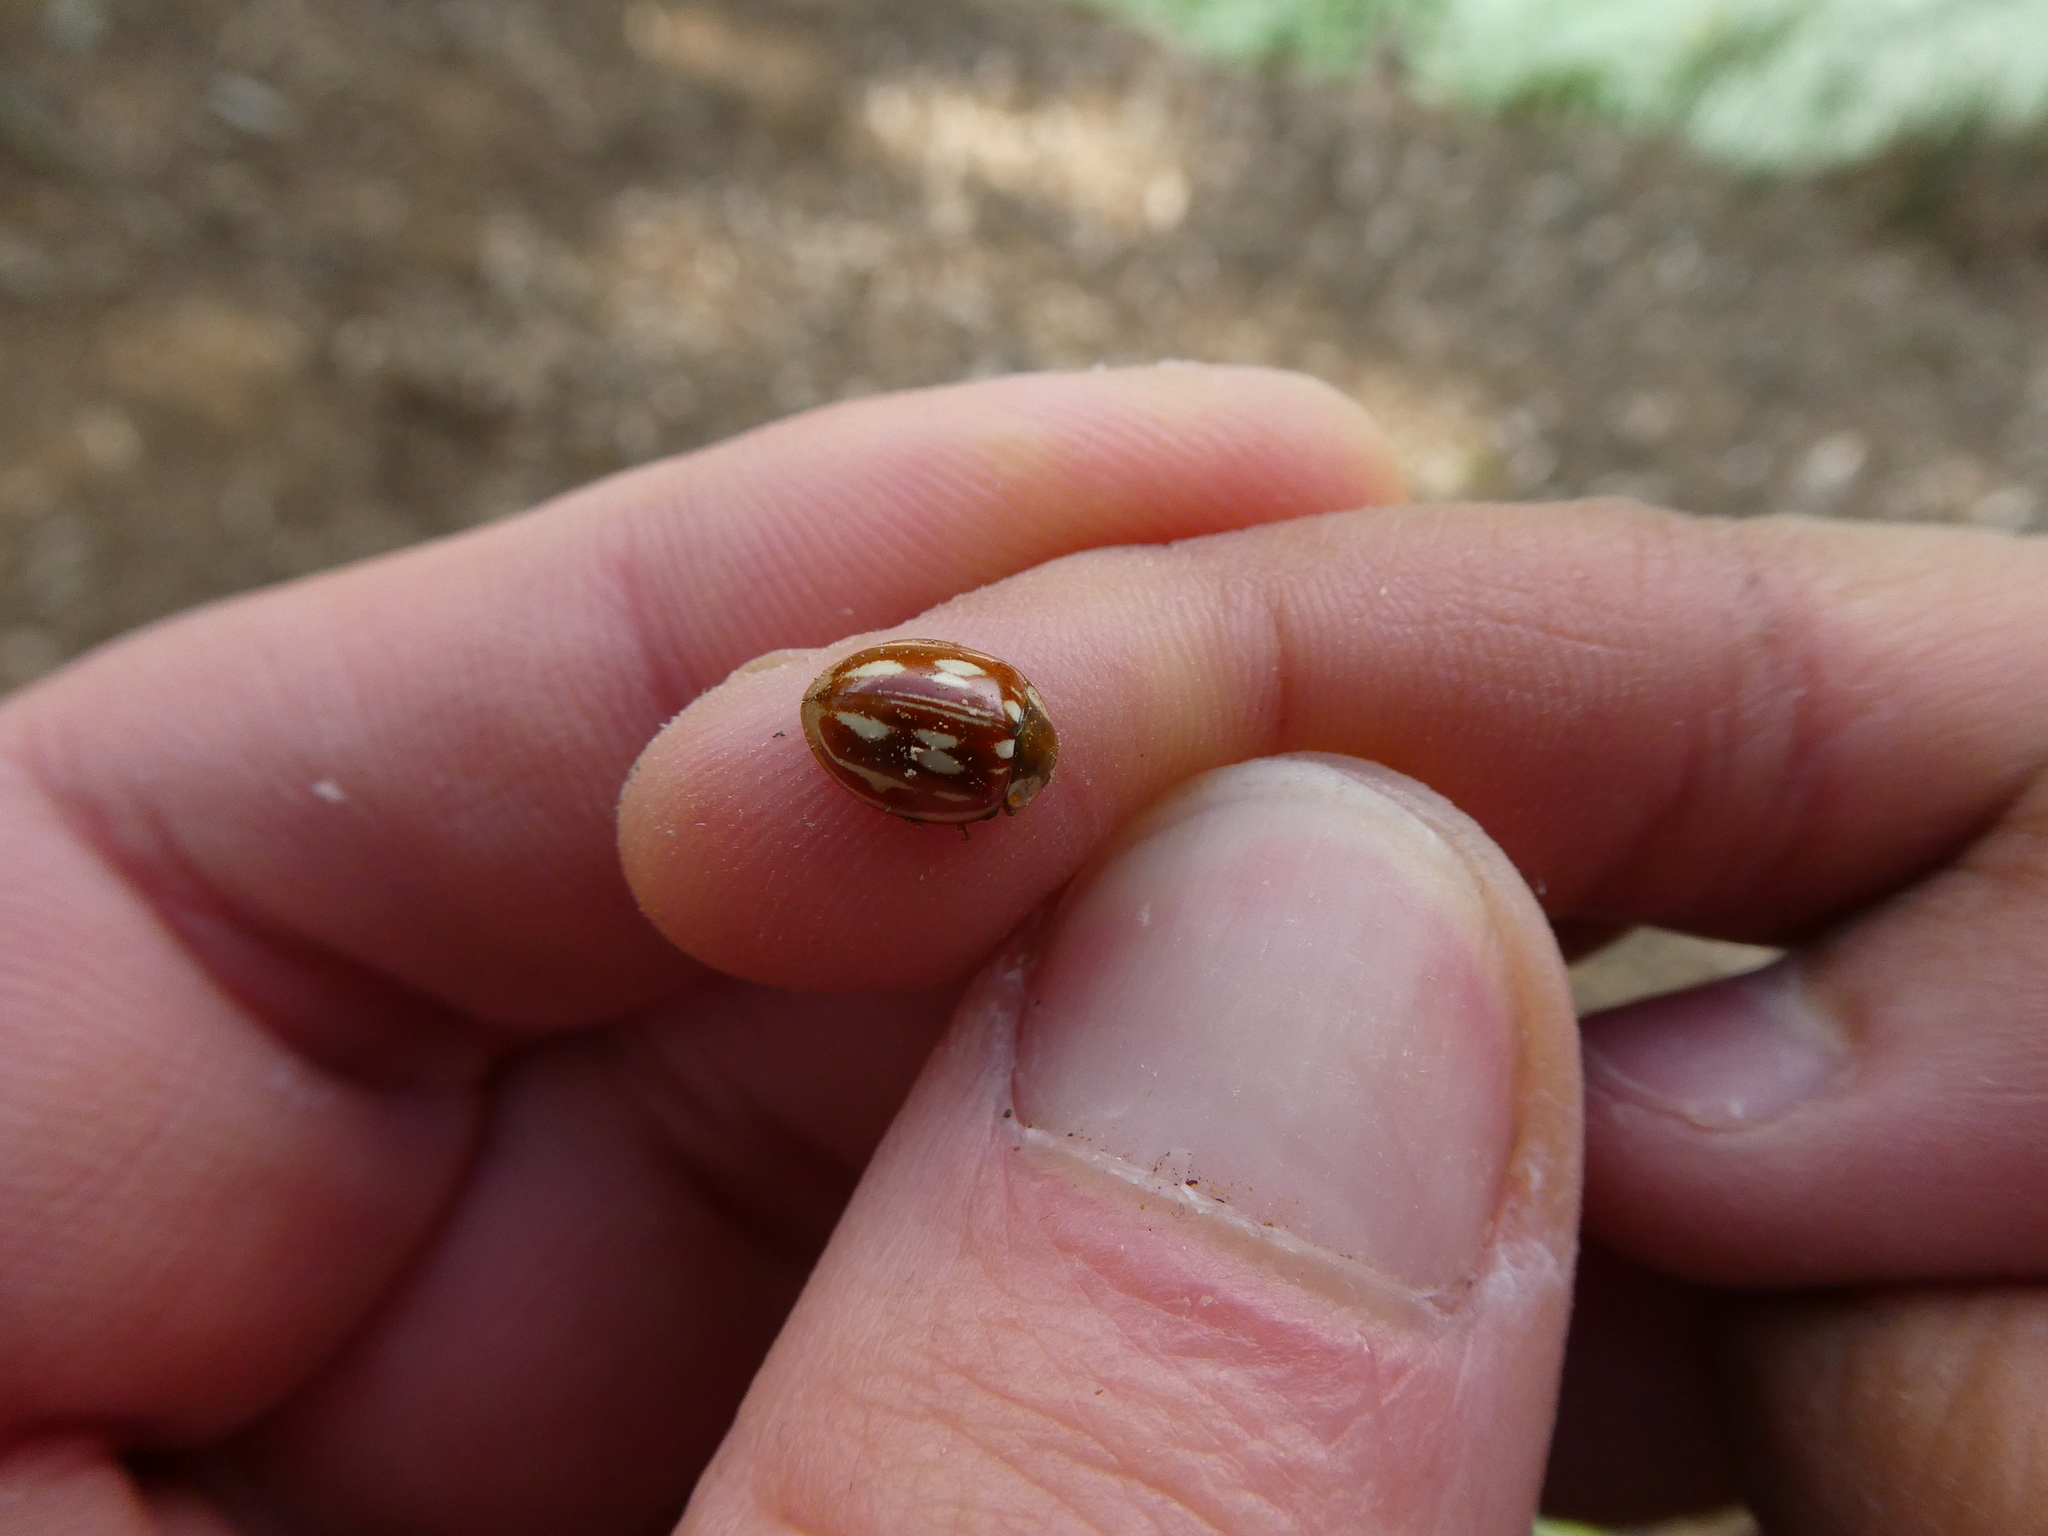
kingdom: Animalia
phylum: Arthropoda
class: Insecta
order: Coleoptera
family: Coccinellidae
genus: Myzia
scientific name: Myzia oblongoguttata
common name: Striped ladybird
